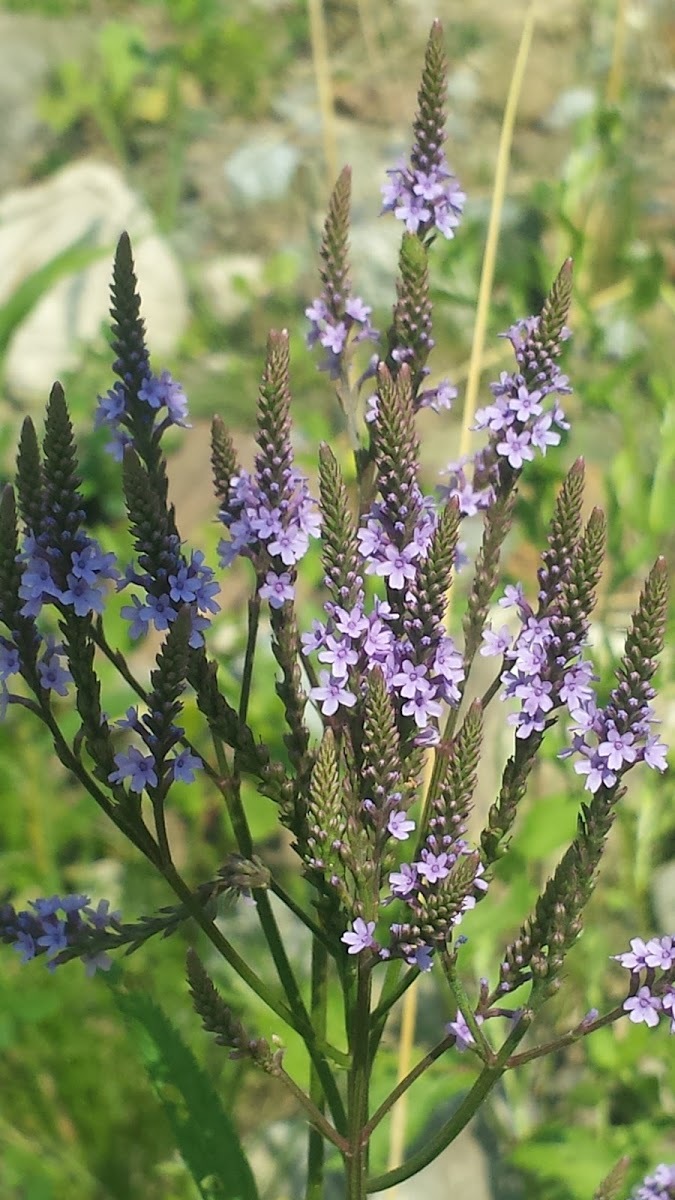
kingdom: Plantae
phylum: Tracheophyta
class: Magnoliopsida
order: Lamiales
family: Verbenaceae
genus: Verbena
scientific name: Verbena hastata
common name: American blue vervain
